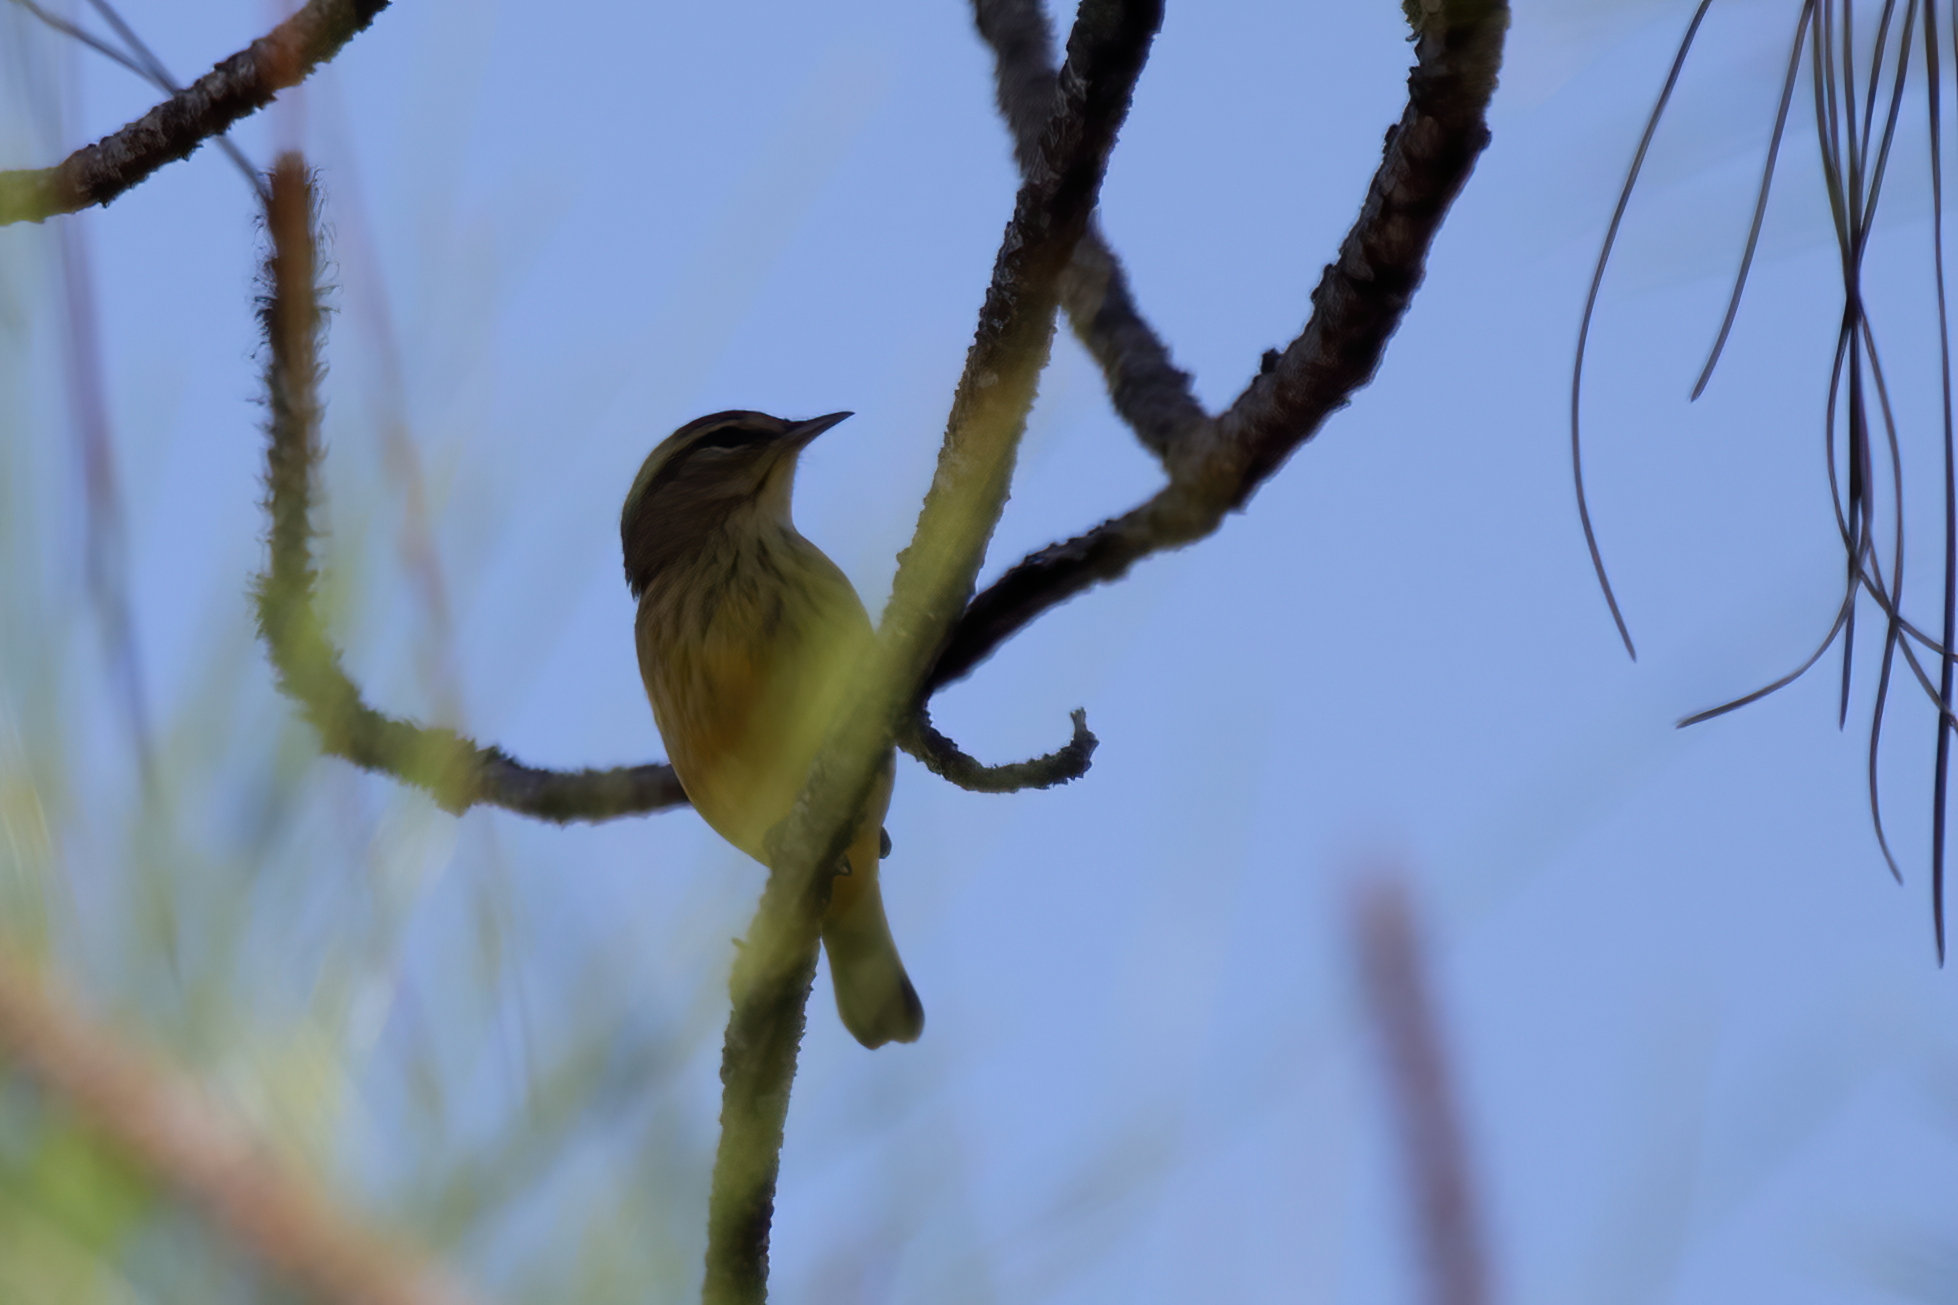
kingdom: Animalia
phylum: Chordata
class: Aves
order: Passeriformes
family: Parulidae
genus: Setophaga
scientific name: Setophaga palmarum
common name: Palm warbler
